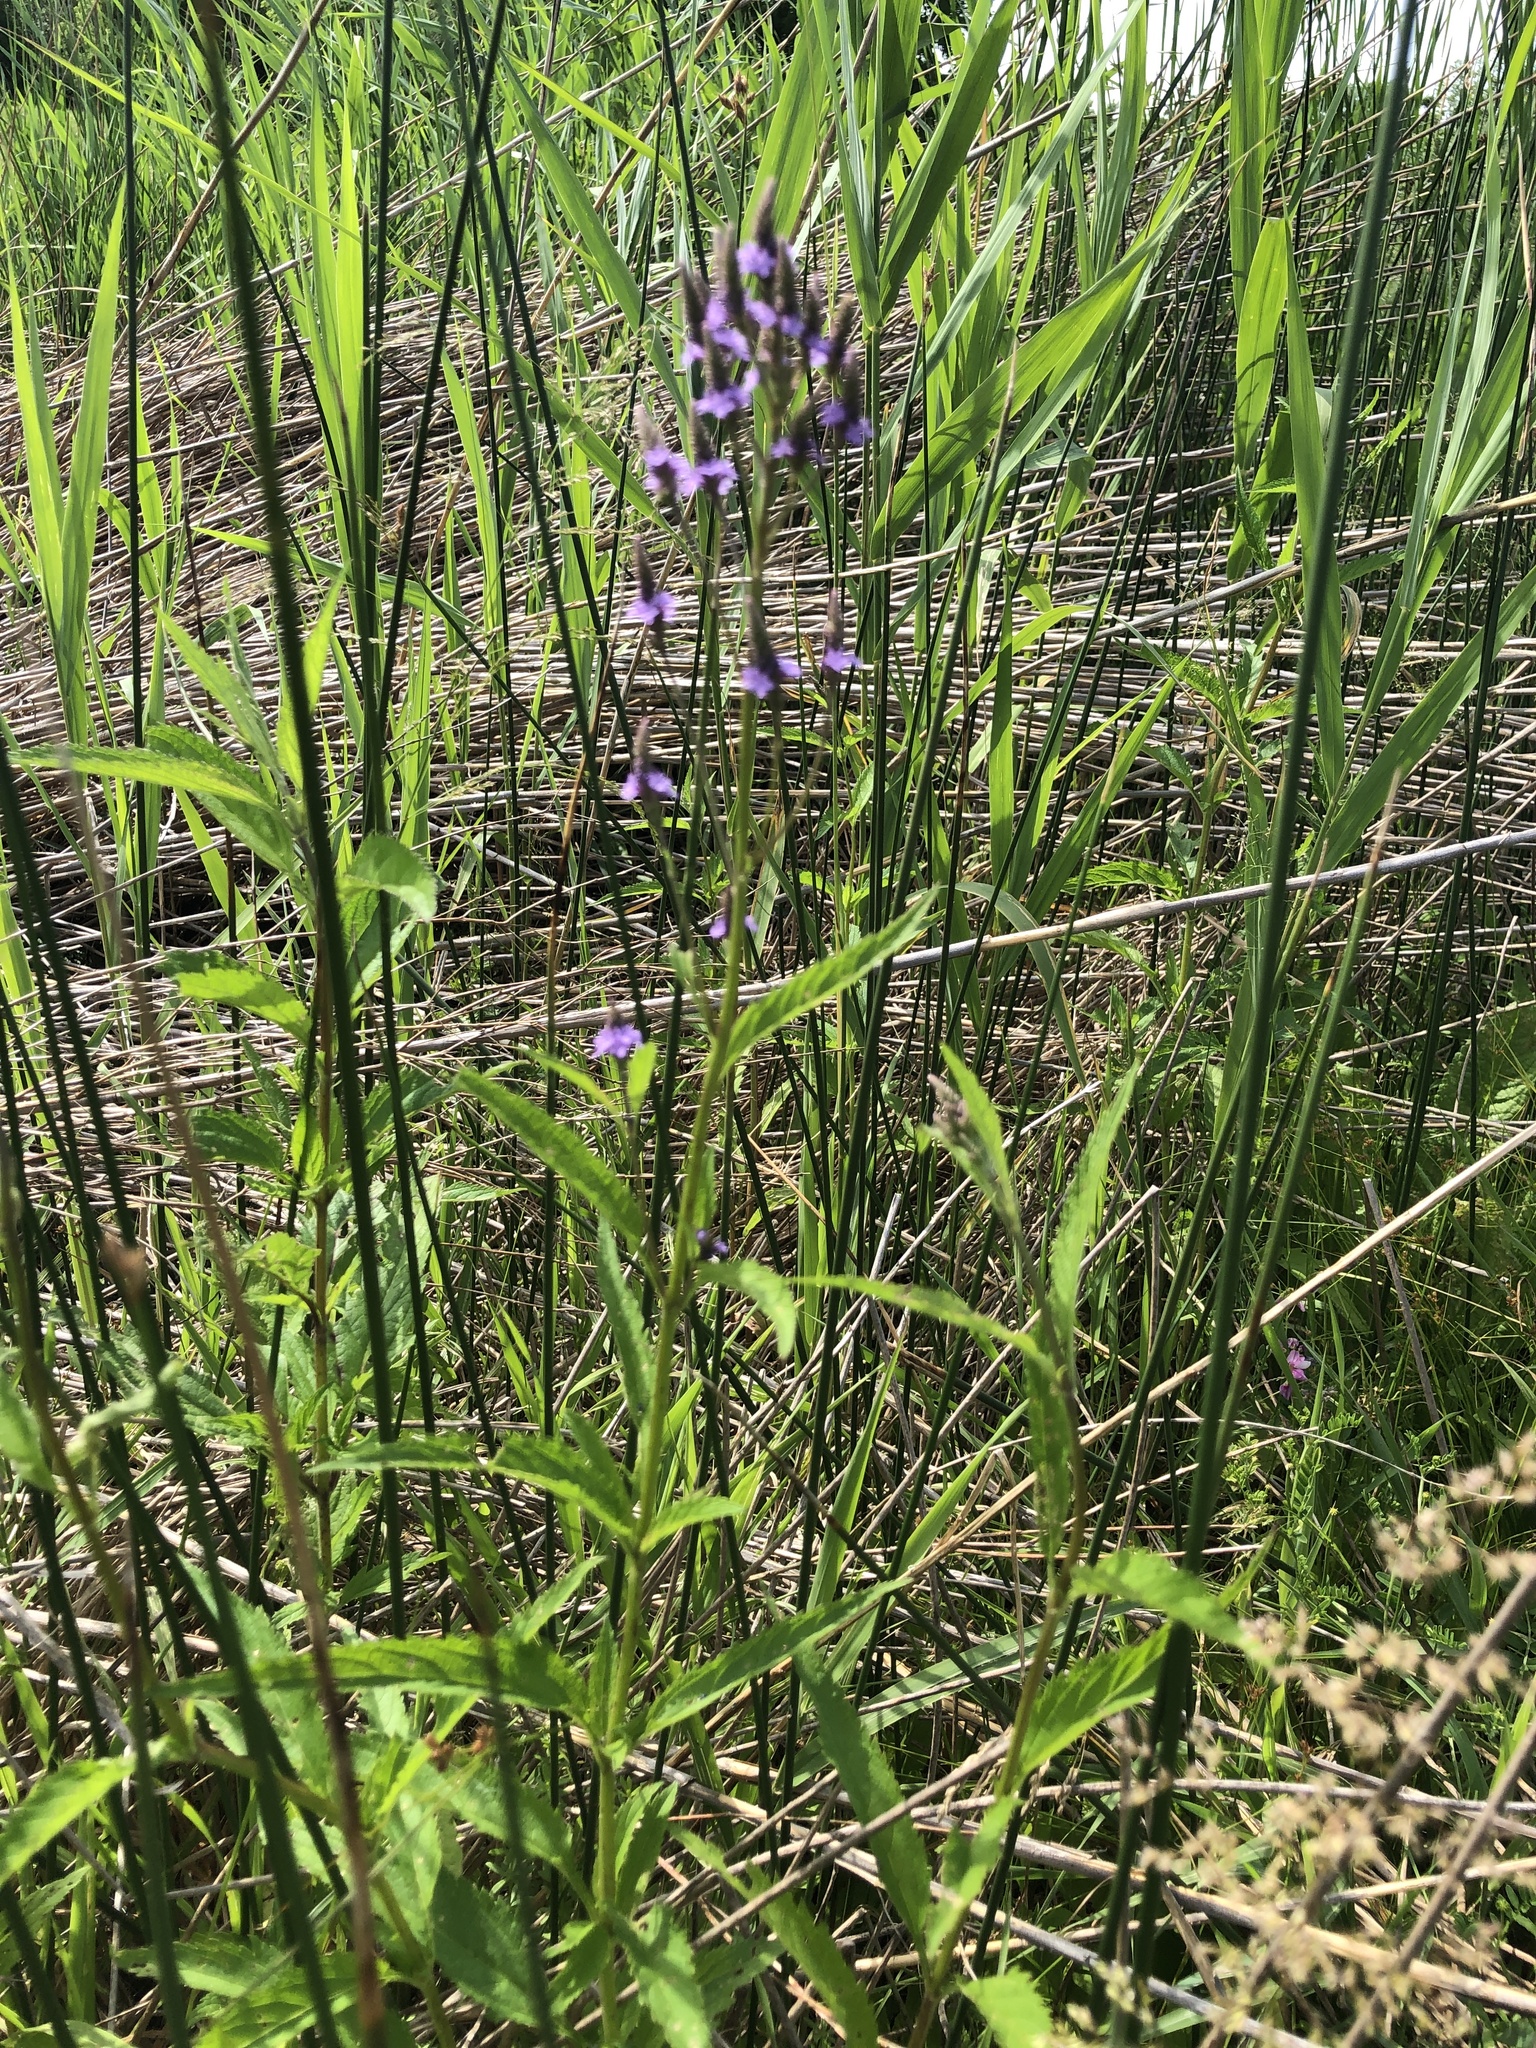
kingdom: Plantae
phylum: Tracheophyta
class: Magnoliopsida
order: Lamiales
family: Verbenaceae
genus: Verbena
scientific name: Verbena hastata
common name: American blue vervain
